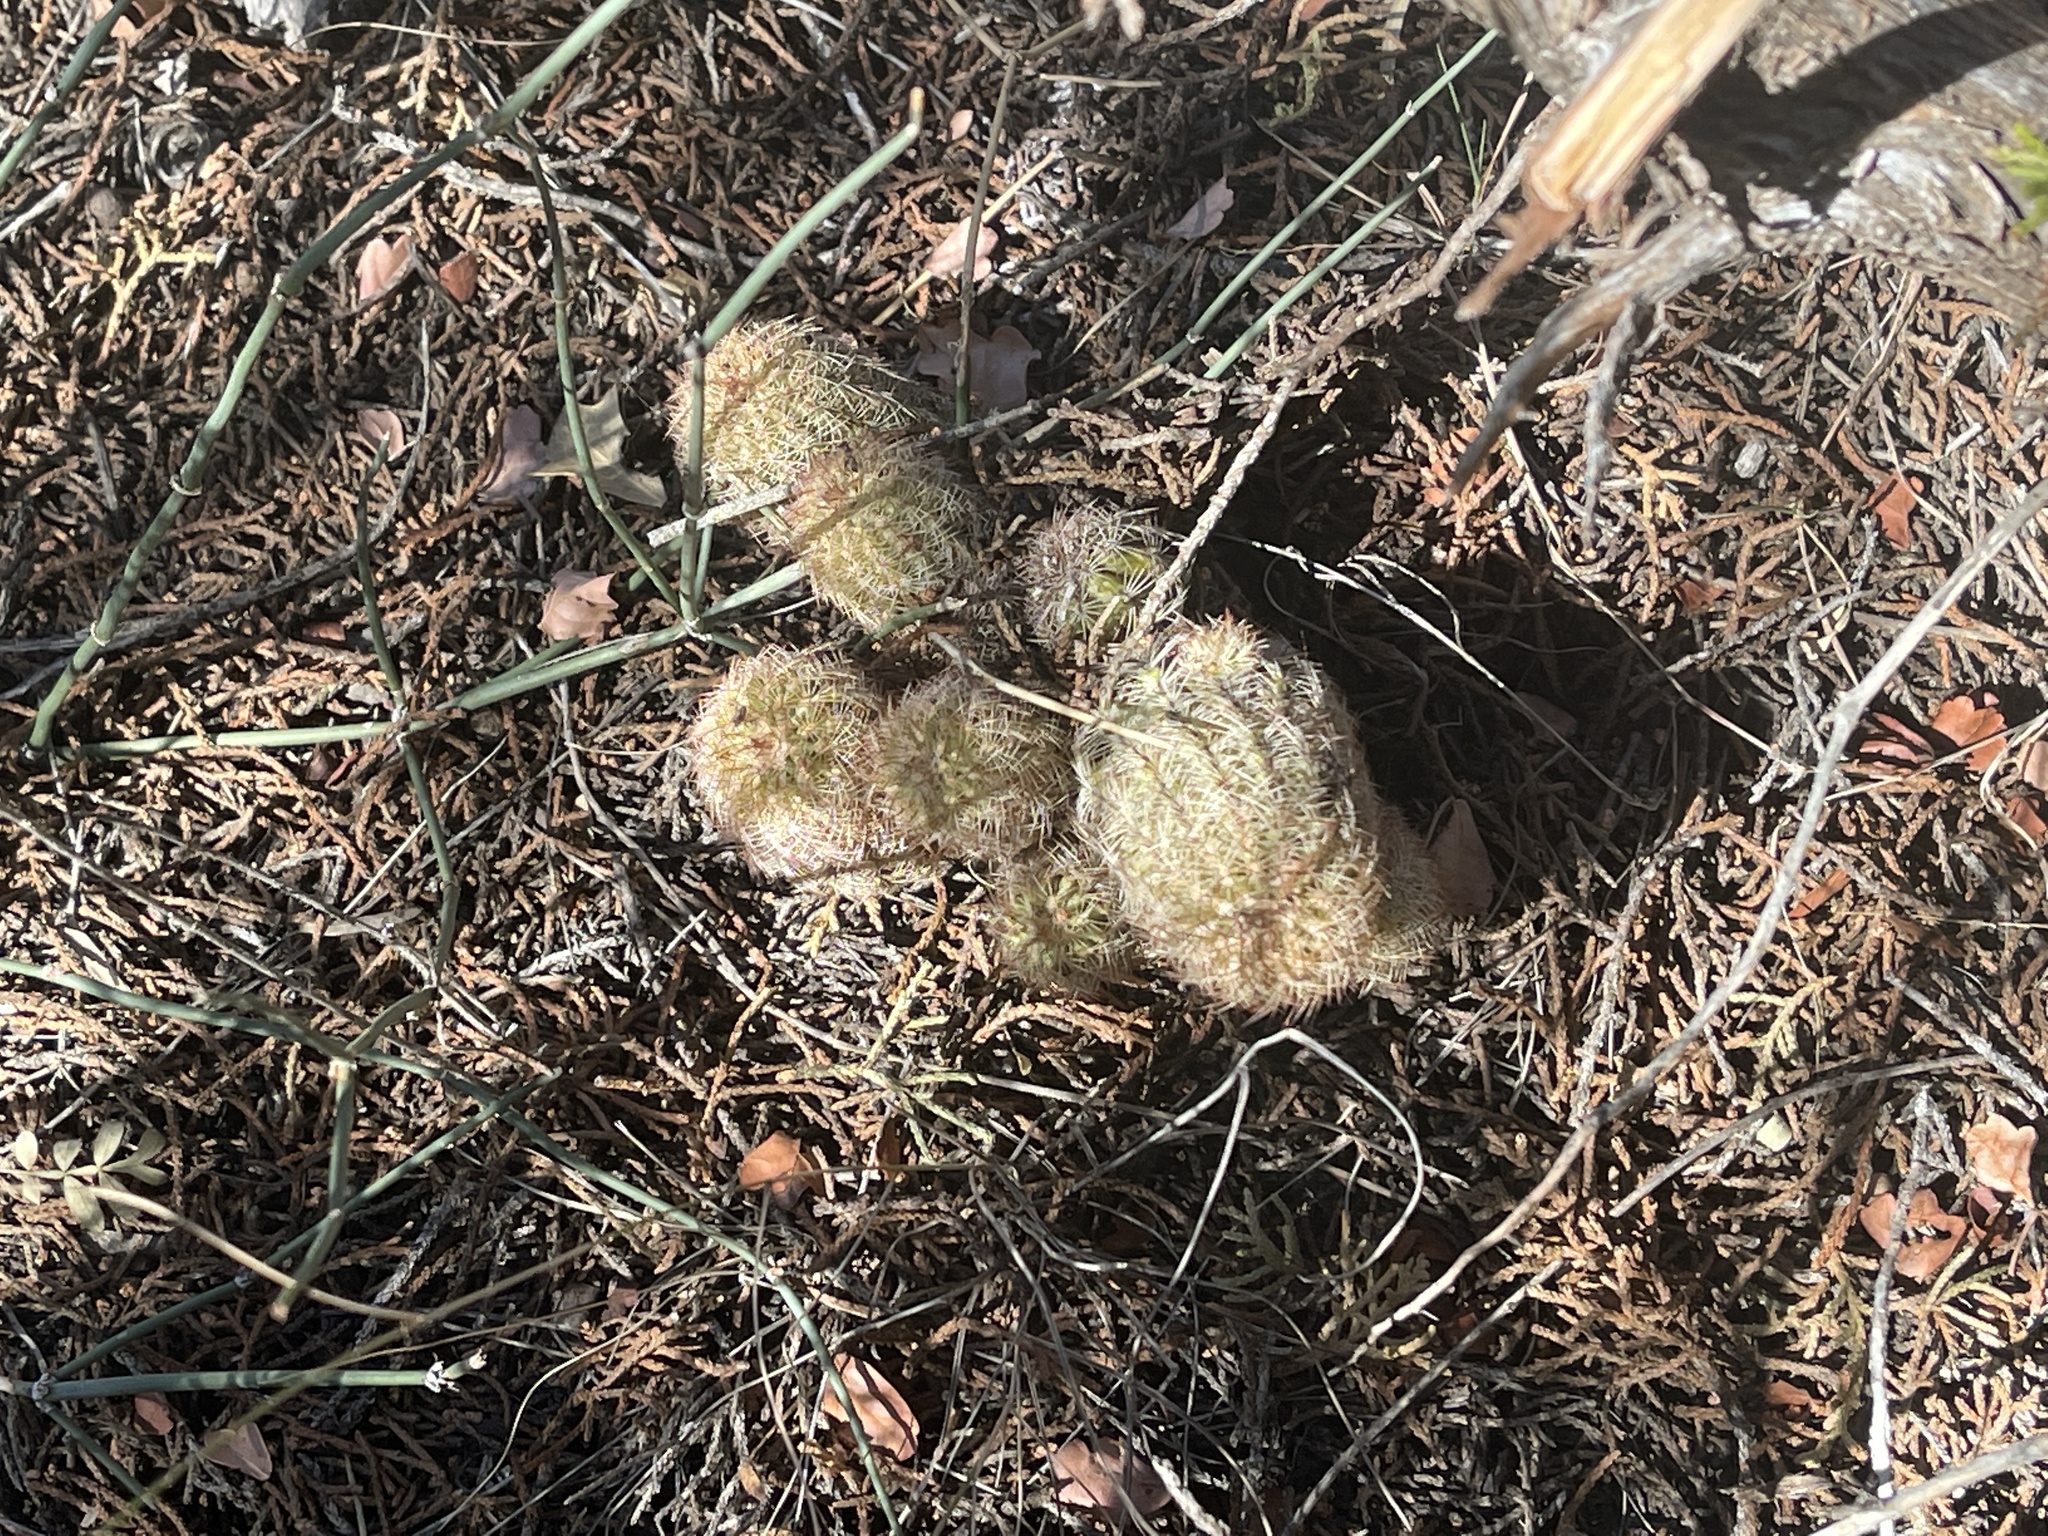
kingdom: Plantae
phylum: Tracheophyta
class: Magnoliopsida
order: Caryophyllales
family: Cactaceae
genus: Echinocereus
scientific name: Echinocereus reichenbachii
